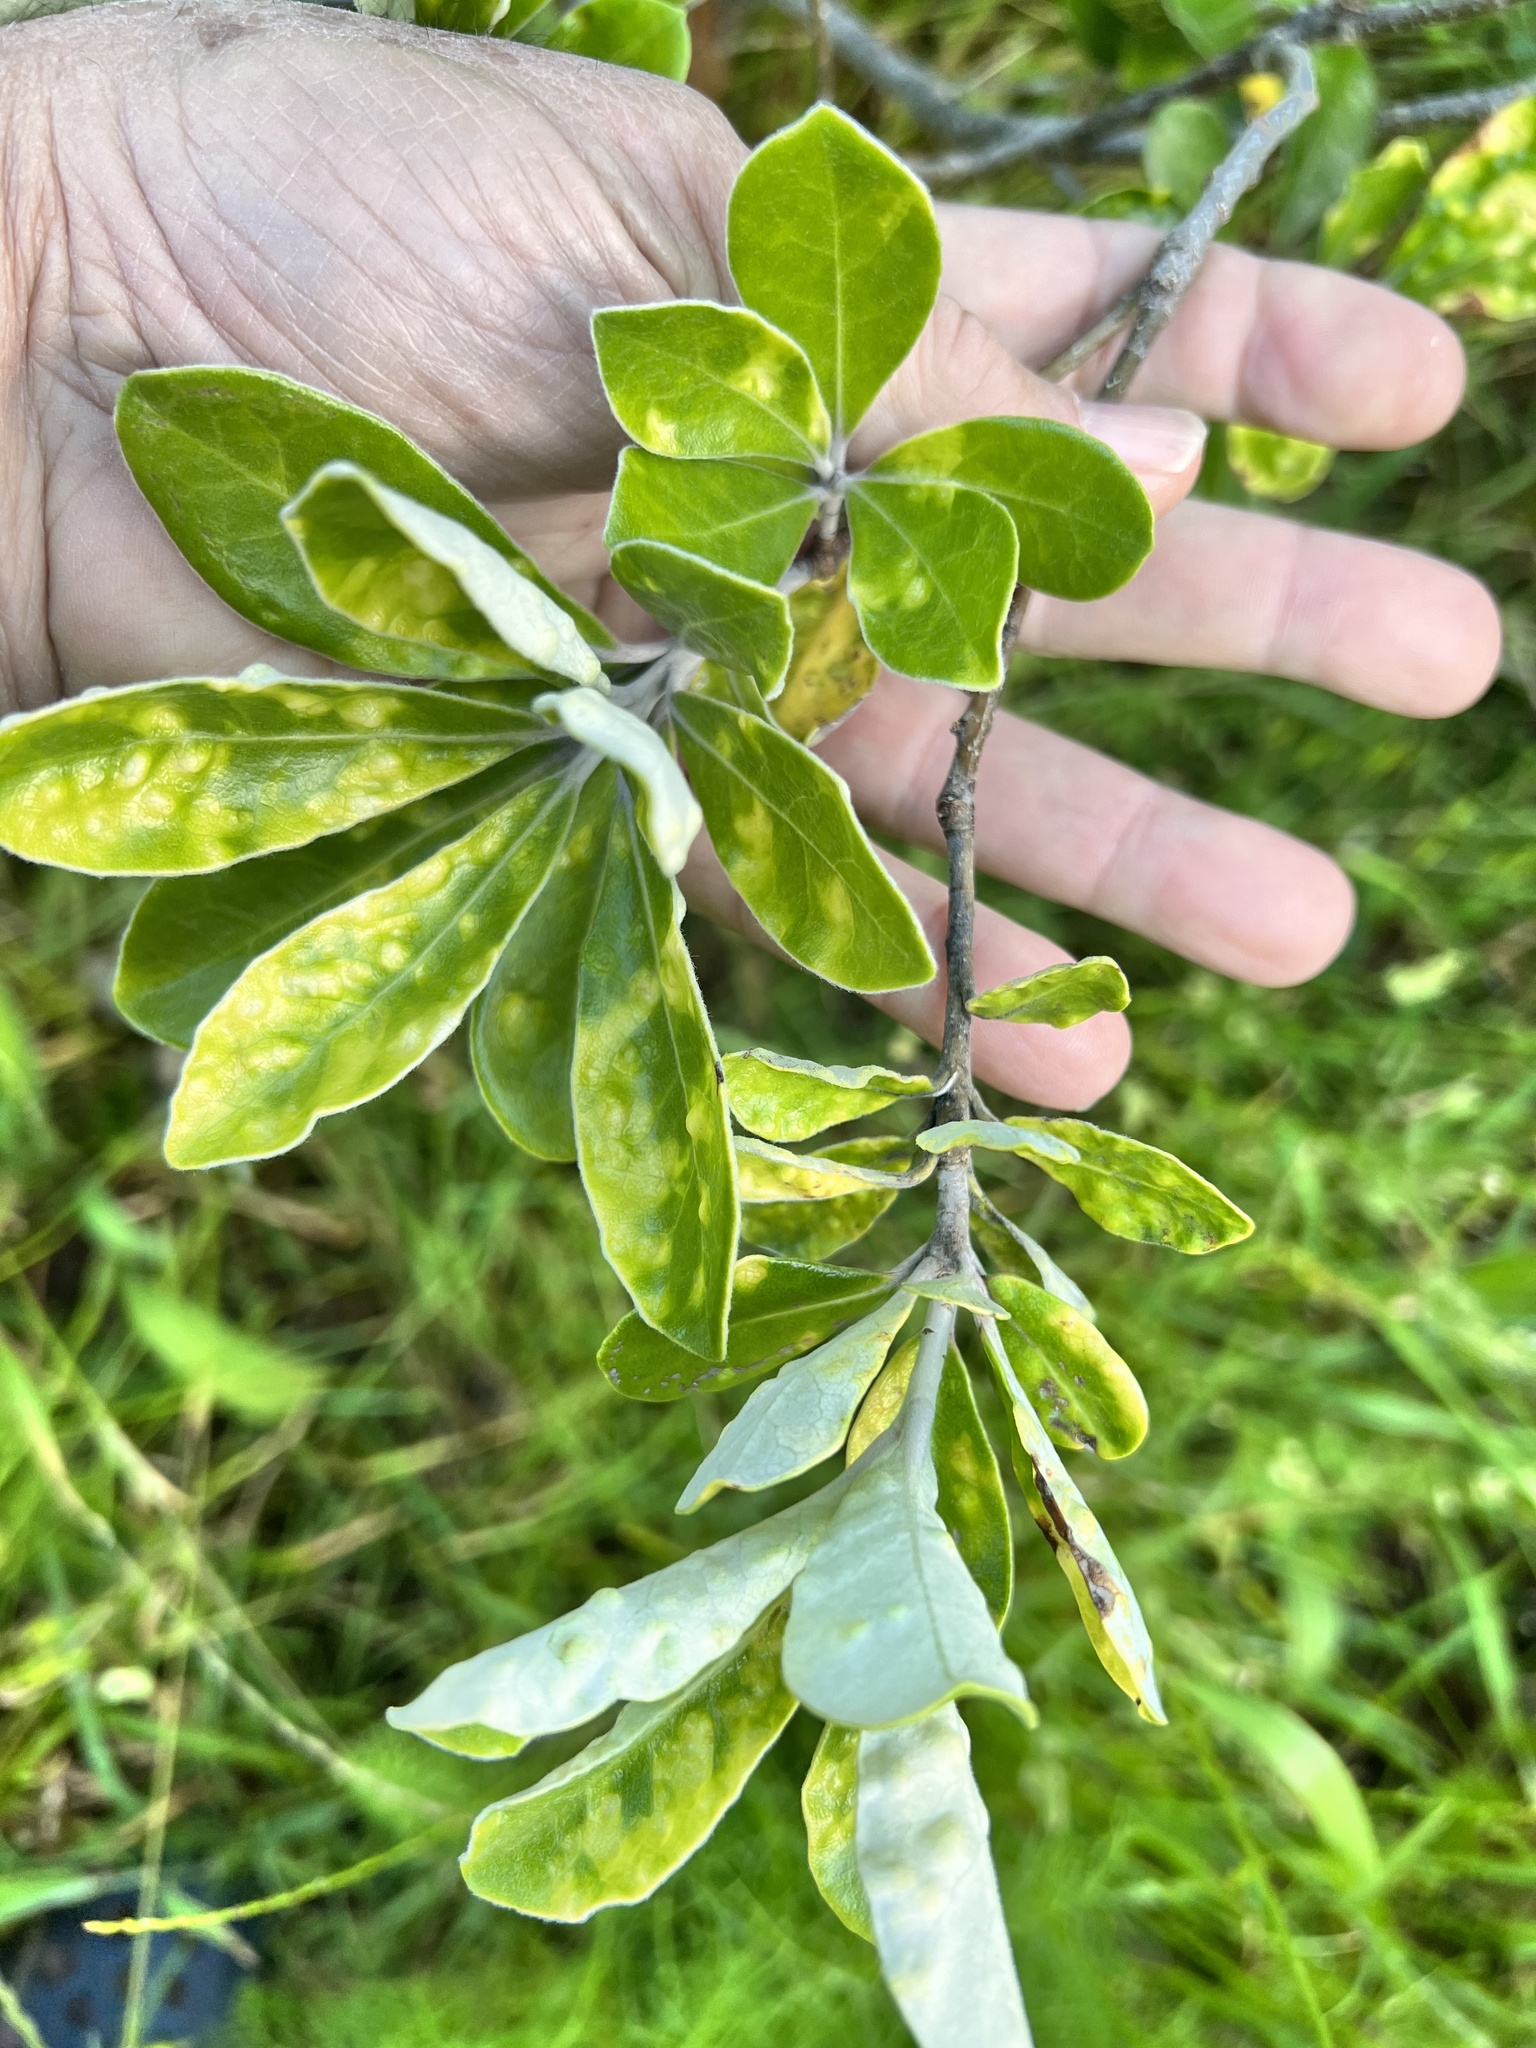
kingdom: Animalia
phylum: Arthropoda
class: Insecta
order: Hemiptera
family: Triozidae
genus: Powellia
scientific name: Powellia vitreoradiata
